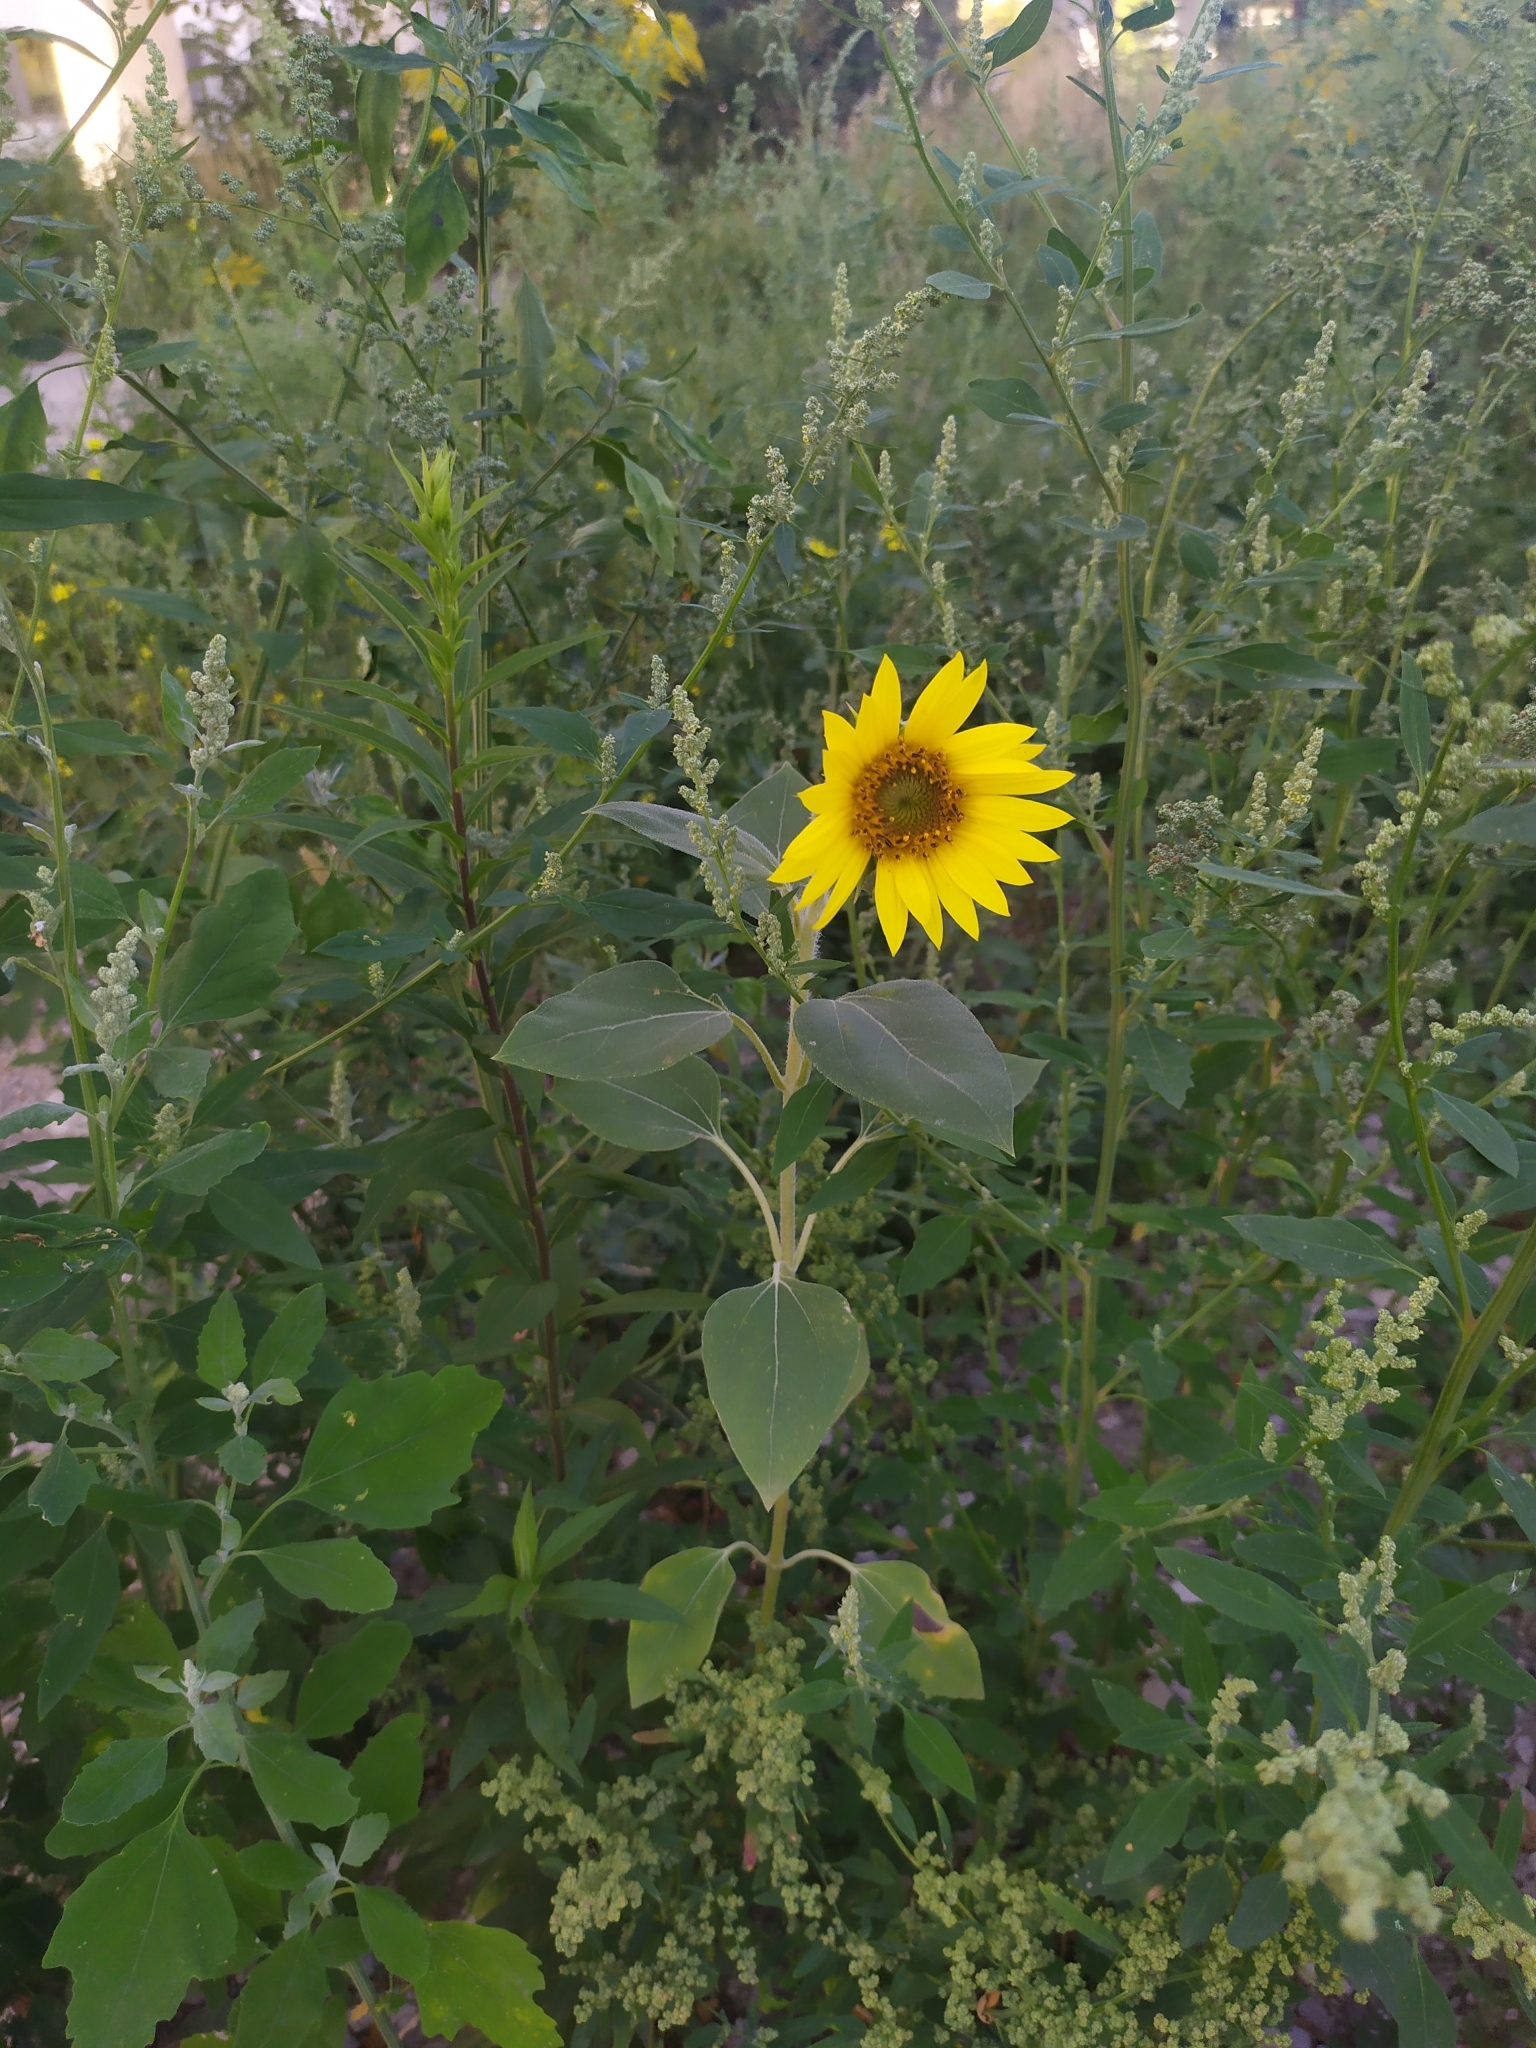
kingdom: Plantae
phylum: Tracheophyta
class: Magnoliopsida
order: Asterales
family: Asteraceae
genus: Helianthus
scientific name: Helianthus annuus
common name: Sunflower
